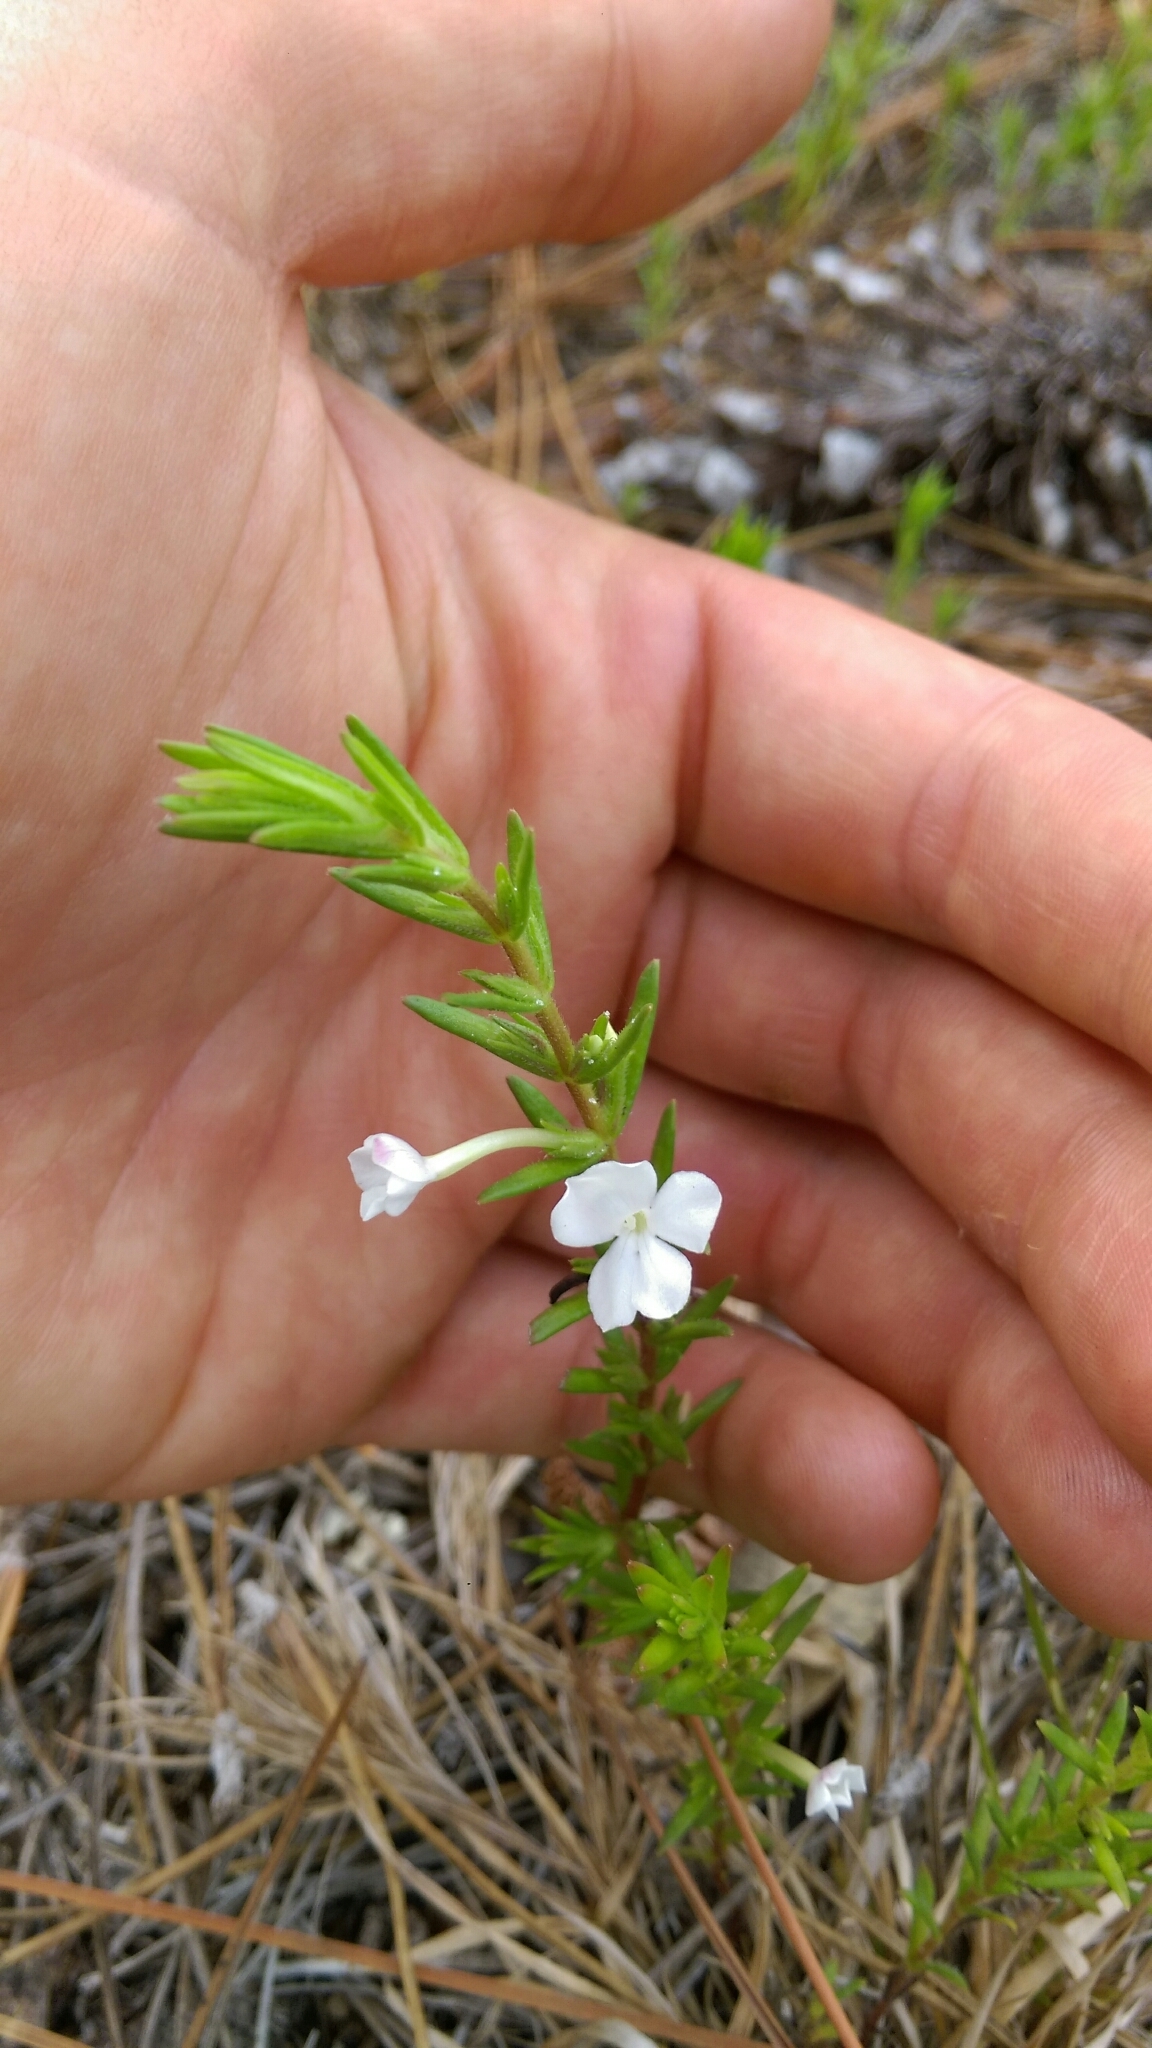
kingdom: Plantae
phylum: Tracheophyta
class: Magnoliopsida
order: Lamiales
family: Plantaginaceae
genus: Gratiola
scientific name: Gratiola hispida
